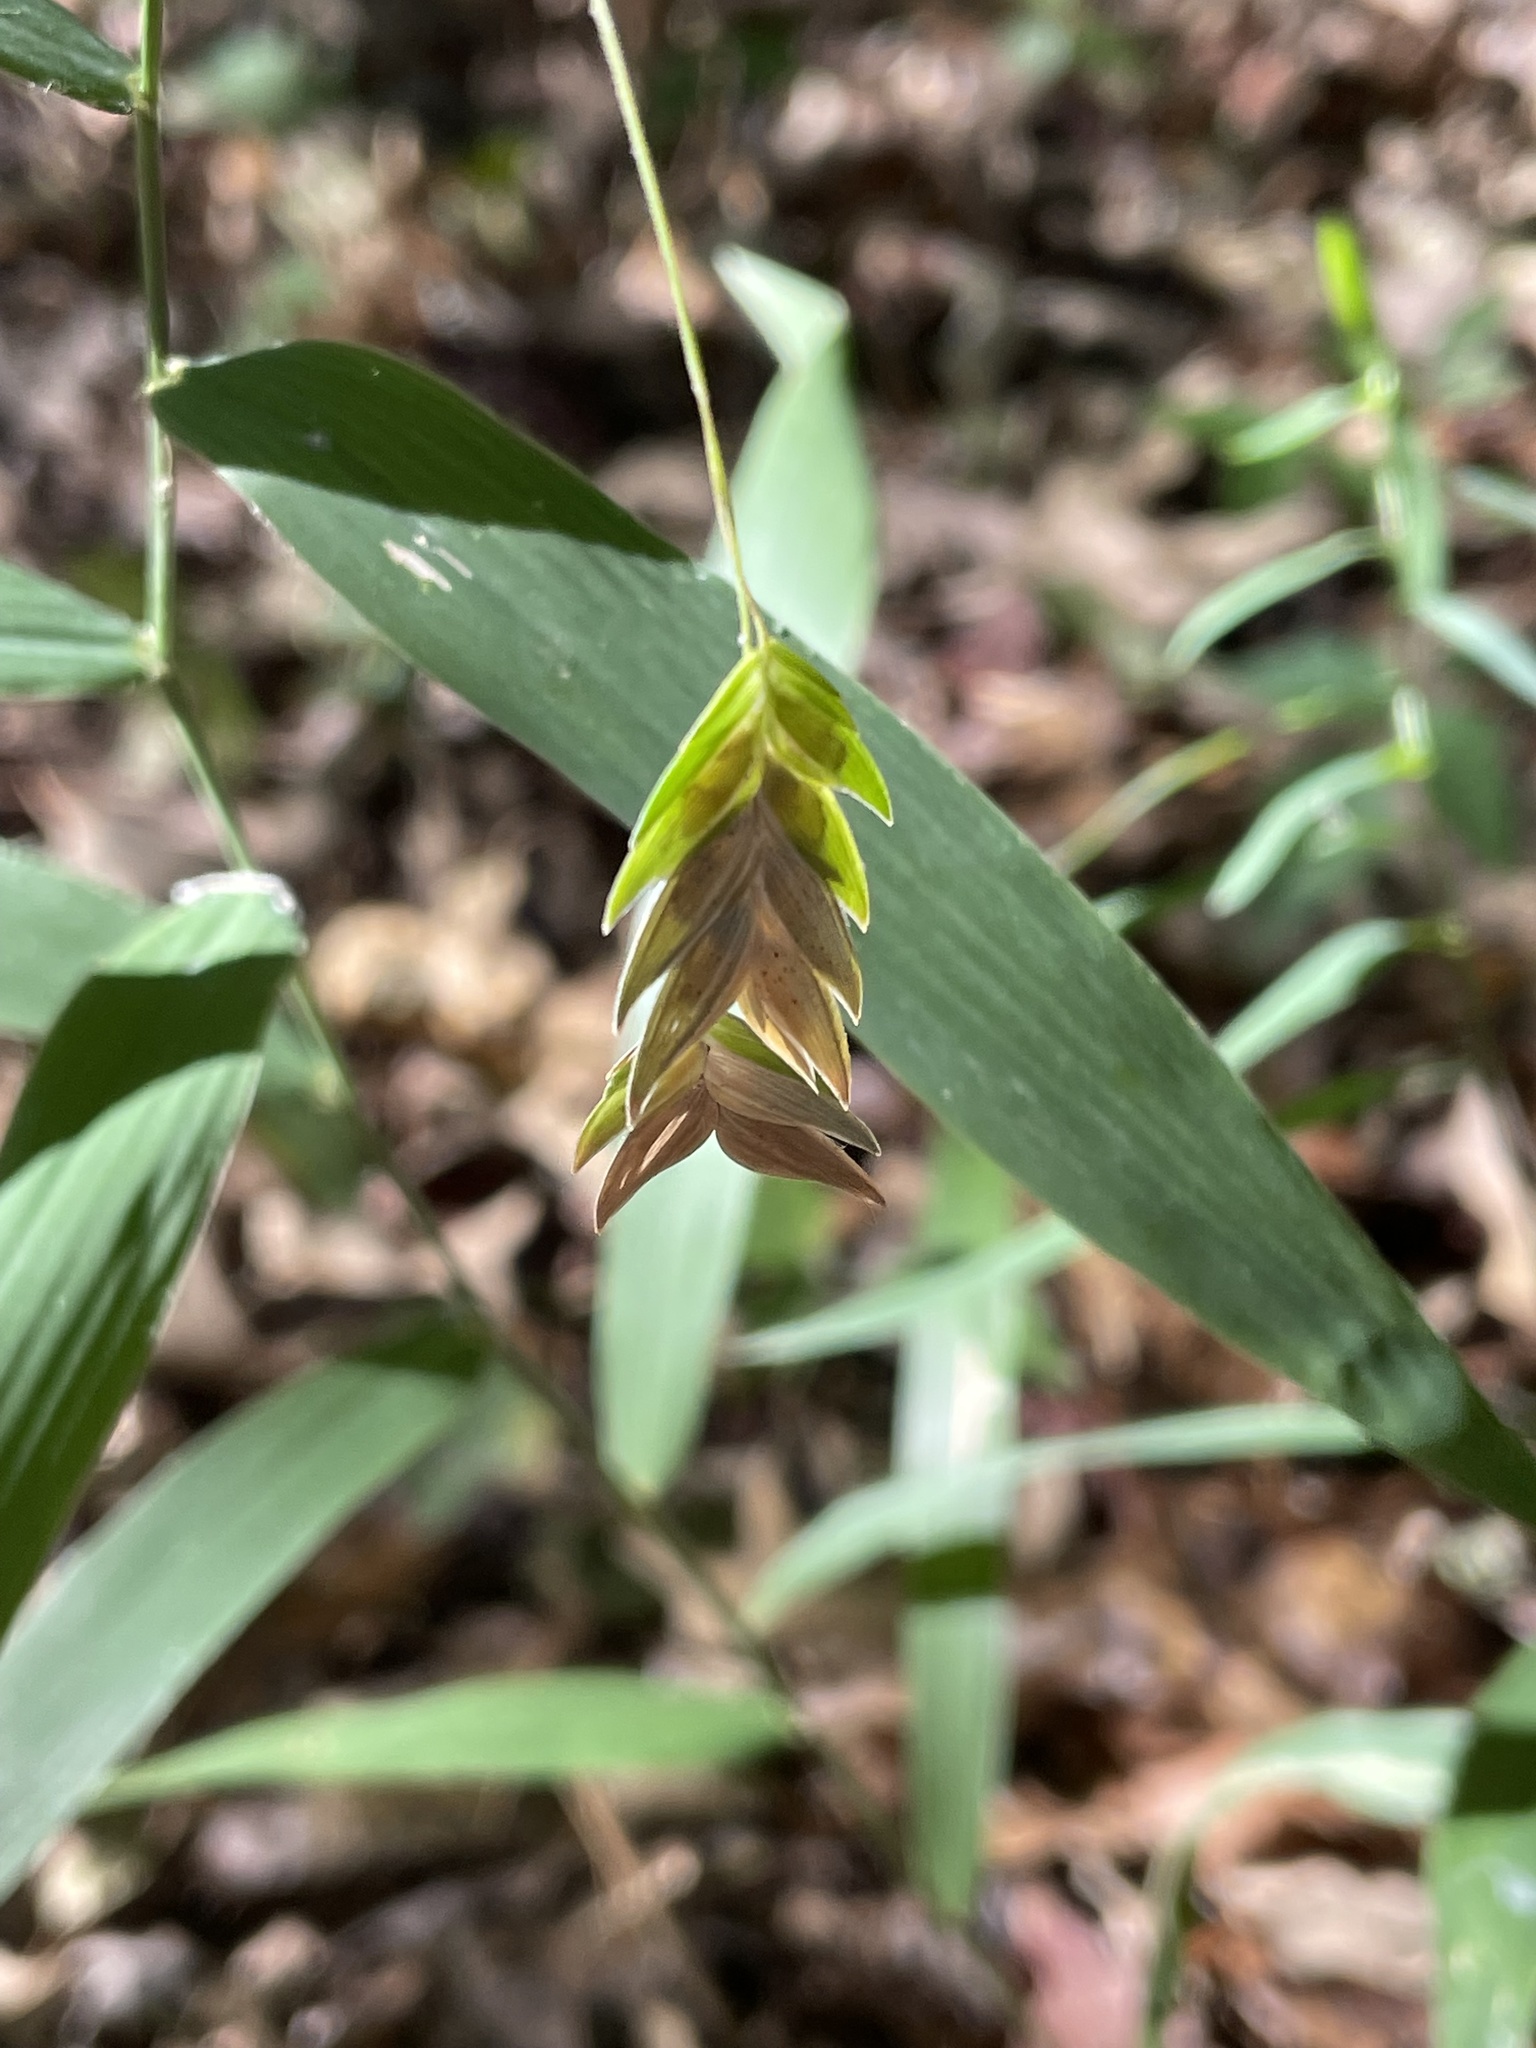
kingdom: Plantae
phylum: Tracheophyta
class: Liliopsida
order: Poales
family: Poaceae
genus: Chasmanthium
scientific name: Chasmanthium latifolium
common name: Broad-leaved chasmanthium
